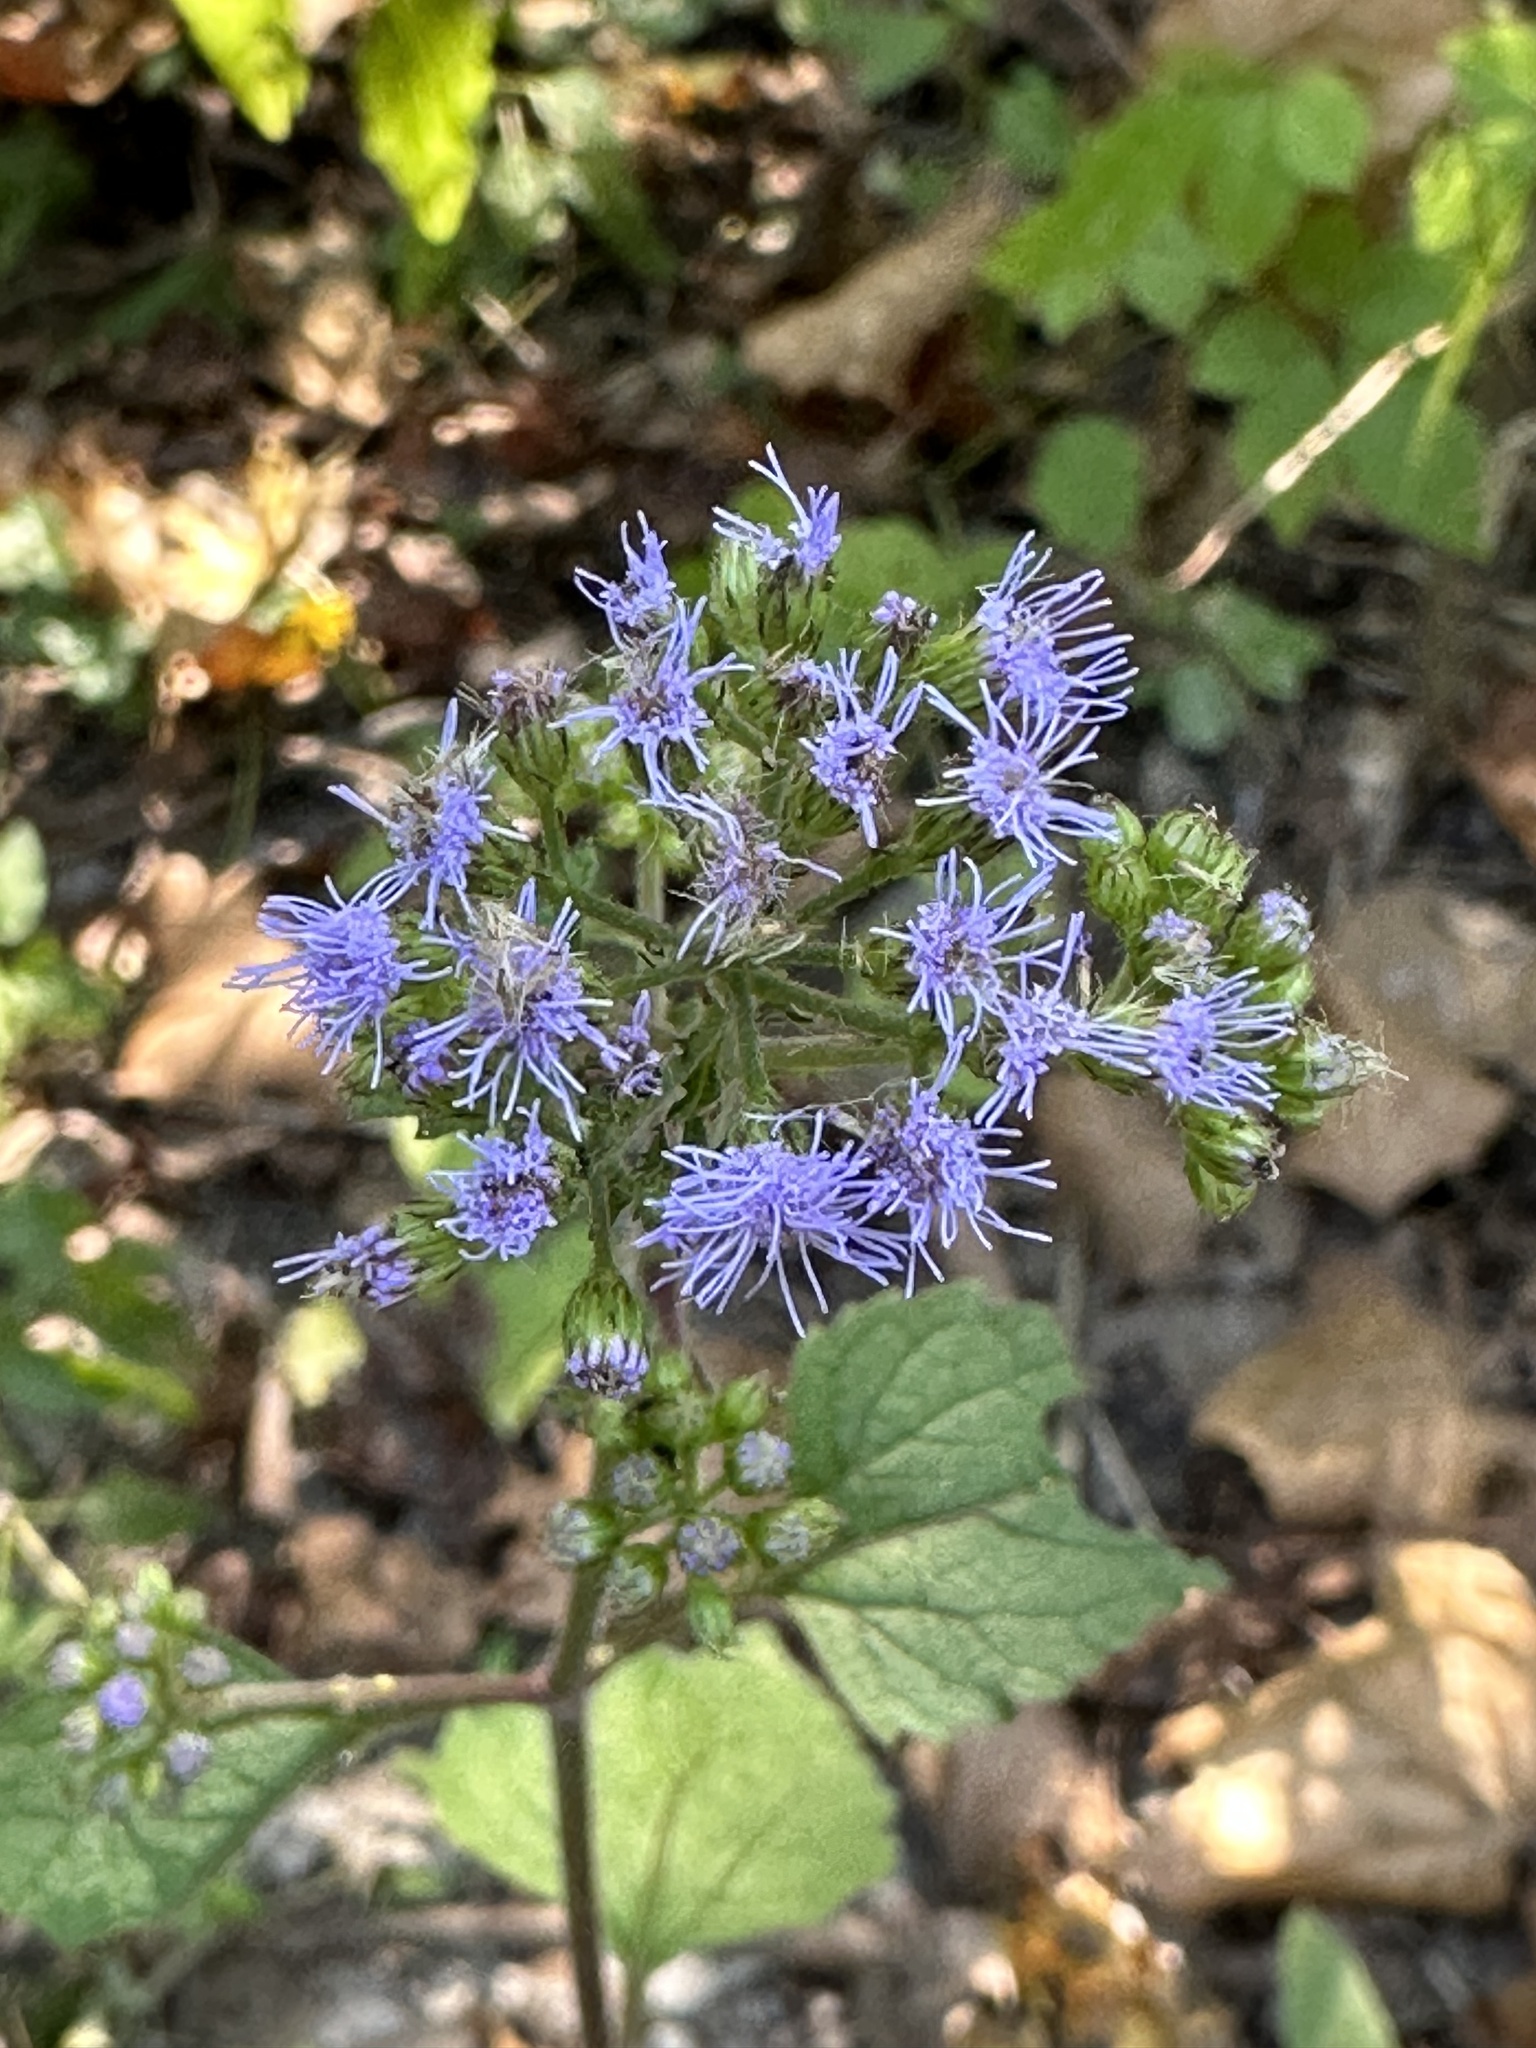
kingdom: Plantae
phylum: Tracheophyta
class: Magnoliopsida
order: Asterales
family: Asteraceae
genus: Conoclinium
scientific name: Conoclinium coelestinum
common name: Blue mistflower
